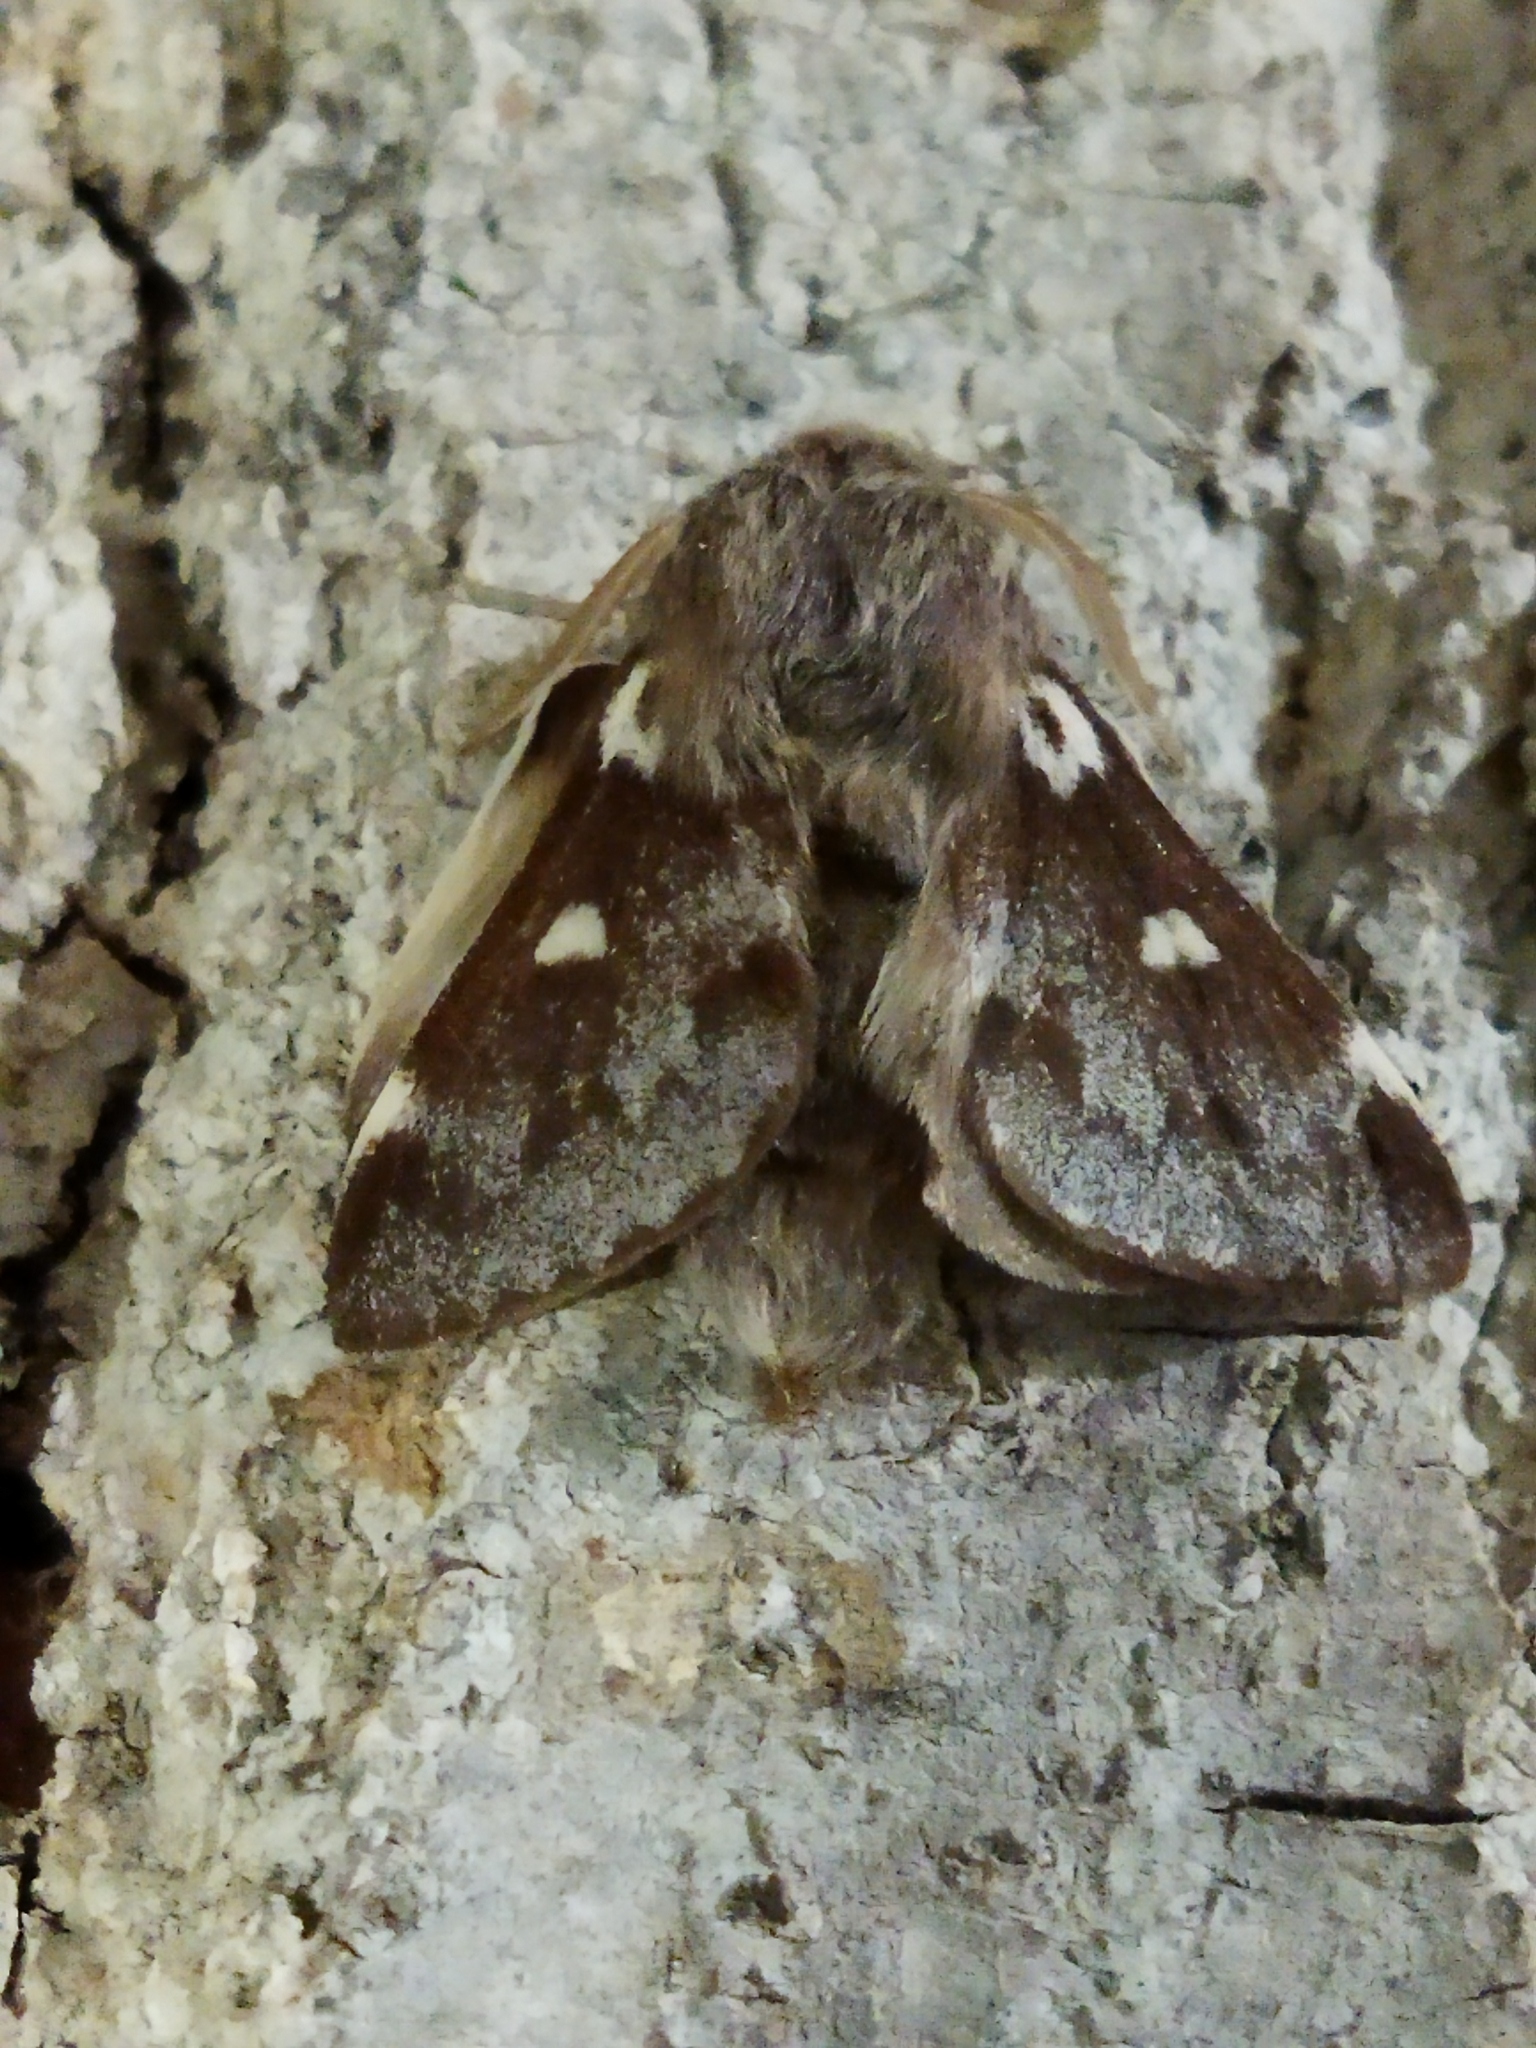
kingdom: Animalia
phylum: Arthropoda
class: Insecta
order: Lepidoptera
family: Lasiocampidae
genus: Eriogaster
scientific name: Eriogaster lanestris
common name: Small eggar
